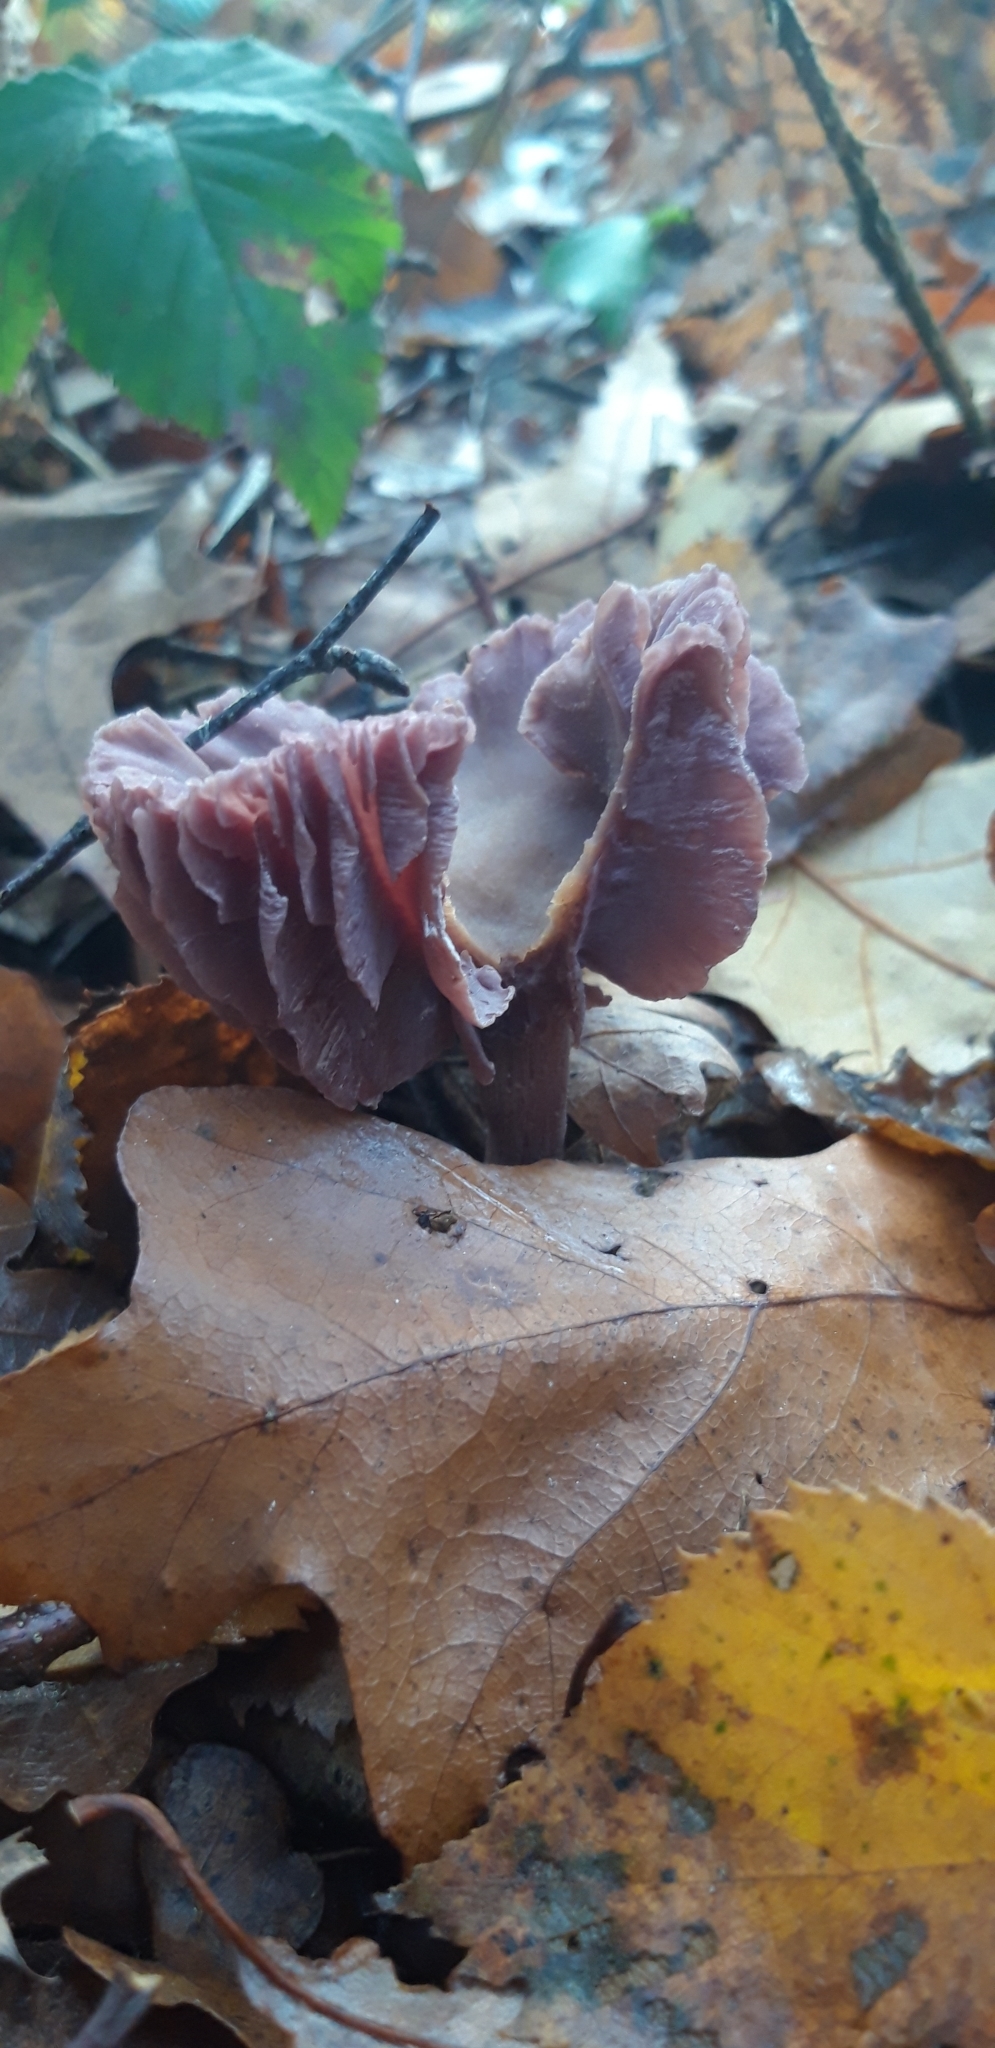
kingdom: Fungi
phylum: Basidiomycota
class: Agaricomycetes
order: Agaricales
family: Hydnangiaceae
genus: Laccaria
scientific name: Laccaria amethystina
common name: Amethyst deceiver
